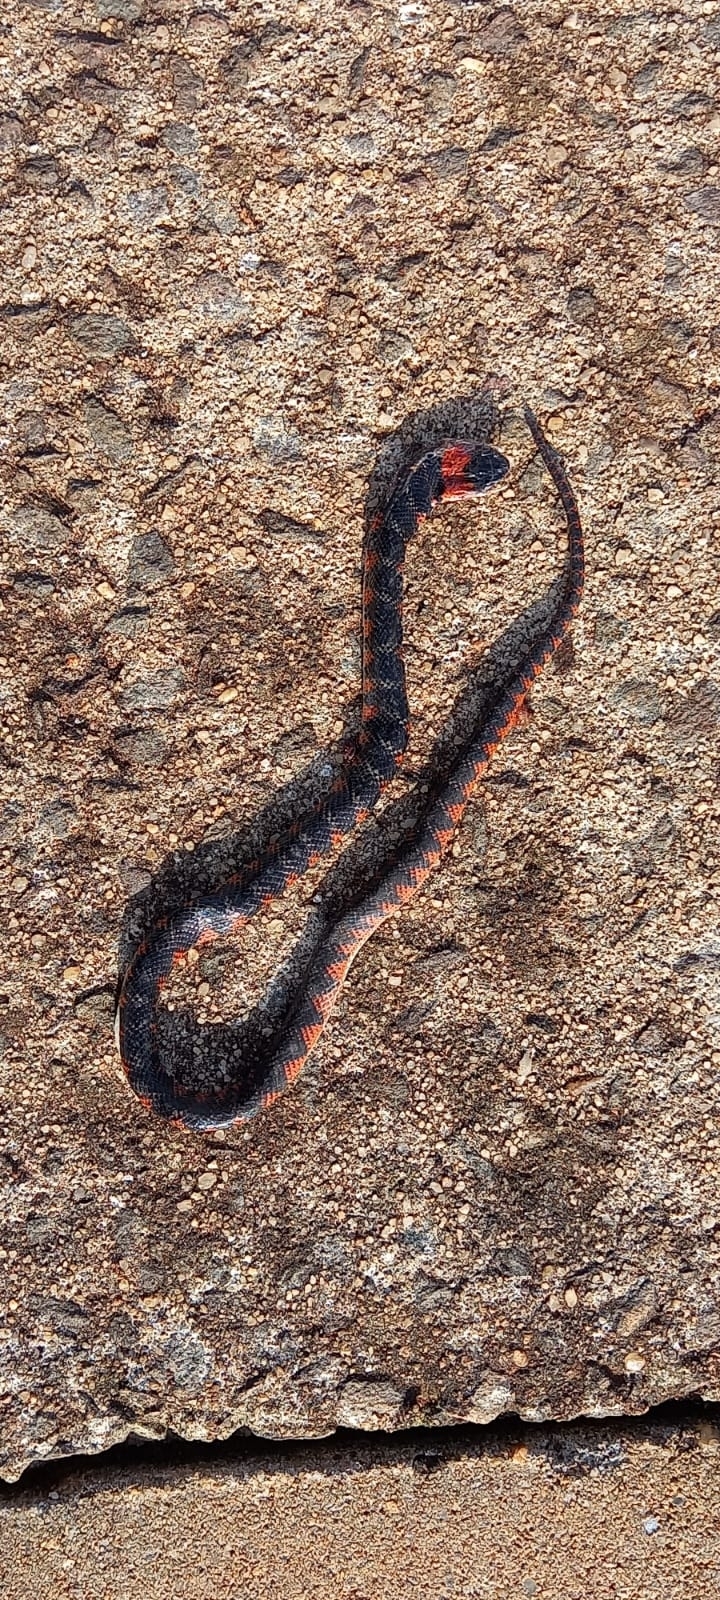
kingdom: Animalia
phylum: Chordata
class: Squamata
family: Colubridae
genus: Oxyrhopus
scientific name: Oxyrhopus rhombifer
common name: Amazon false coral snake
